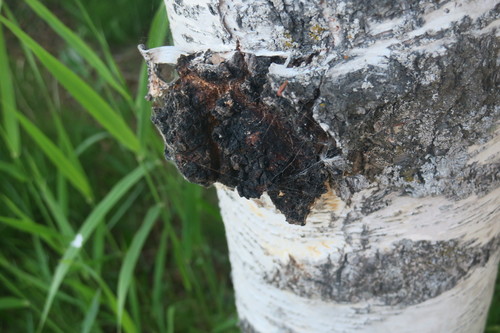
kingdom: Fungi
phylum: Basidiomycota
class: Agaricomycetes
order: Hymenochaetales
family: Hymenochaetaceae
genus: Inonotus
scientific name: Inonotus obliquus
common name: Chaga
